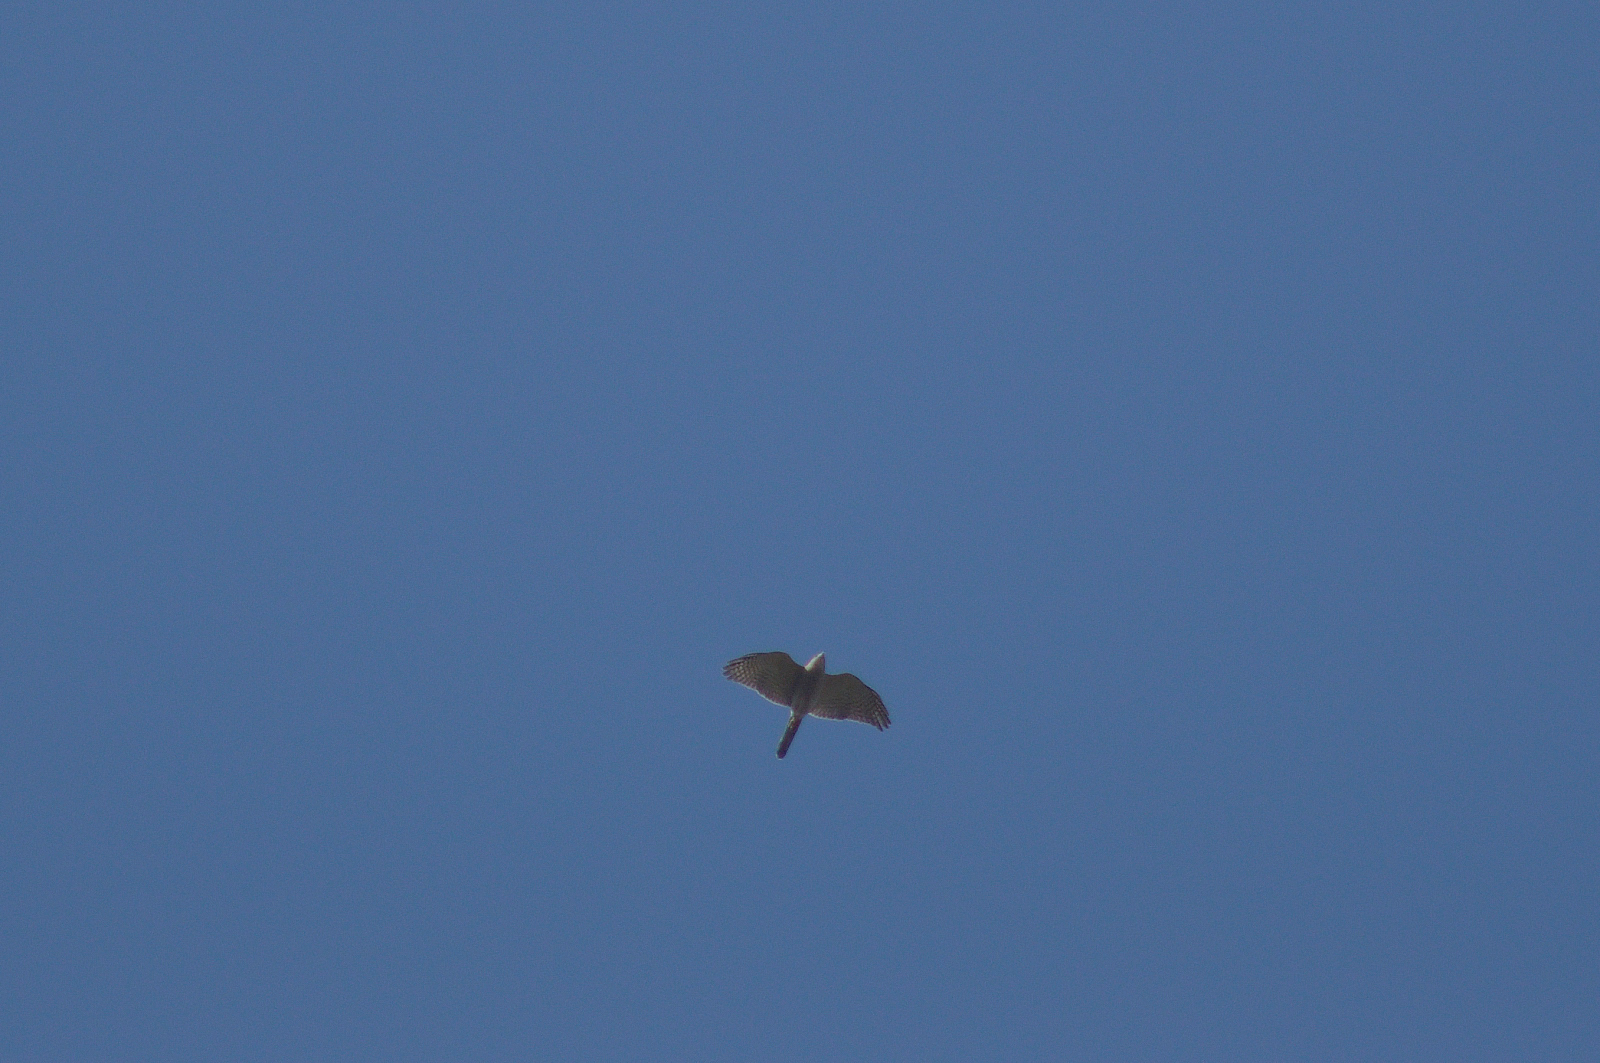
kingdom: Animalia
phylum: Chordata
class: Aves
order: Accipitriformes
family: Accipitridae
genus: Accipiter
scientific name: Accipiter badius
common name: Shikra
